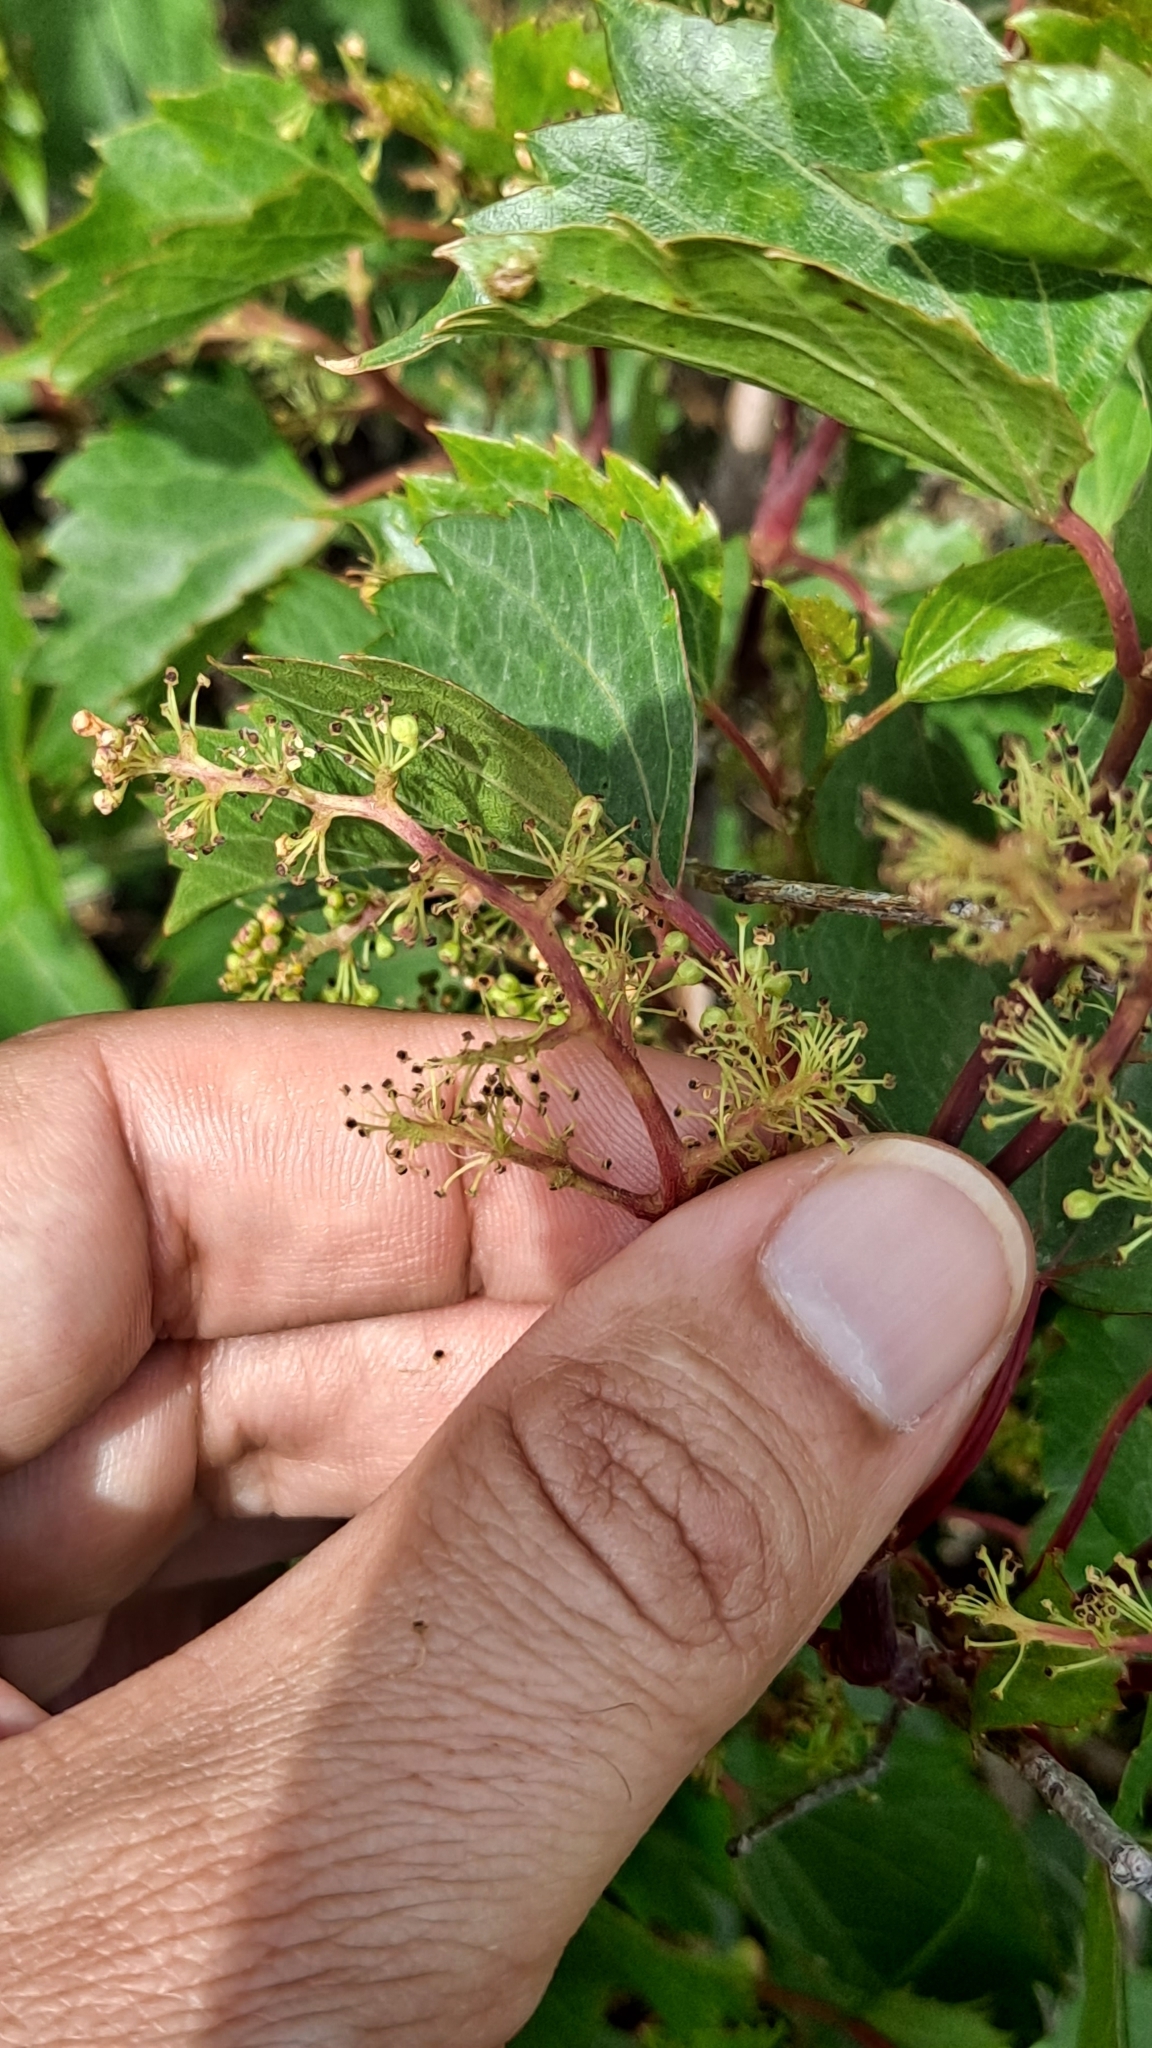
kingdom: Plantae
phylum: Tracheophyta
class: Magnoliopsida
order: Vitales
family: Vitaceae
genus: Vitis
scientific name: Vitis vinifera
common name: Grape-vine
